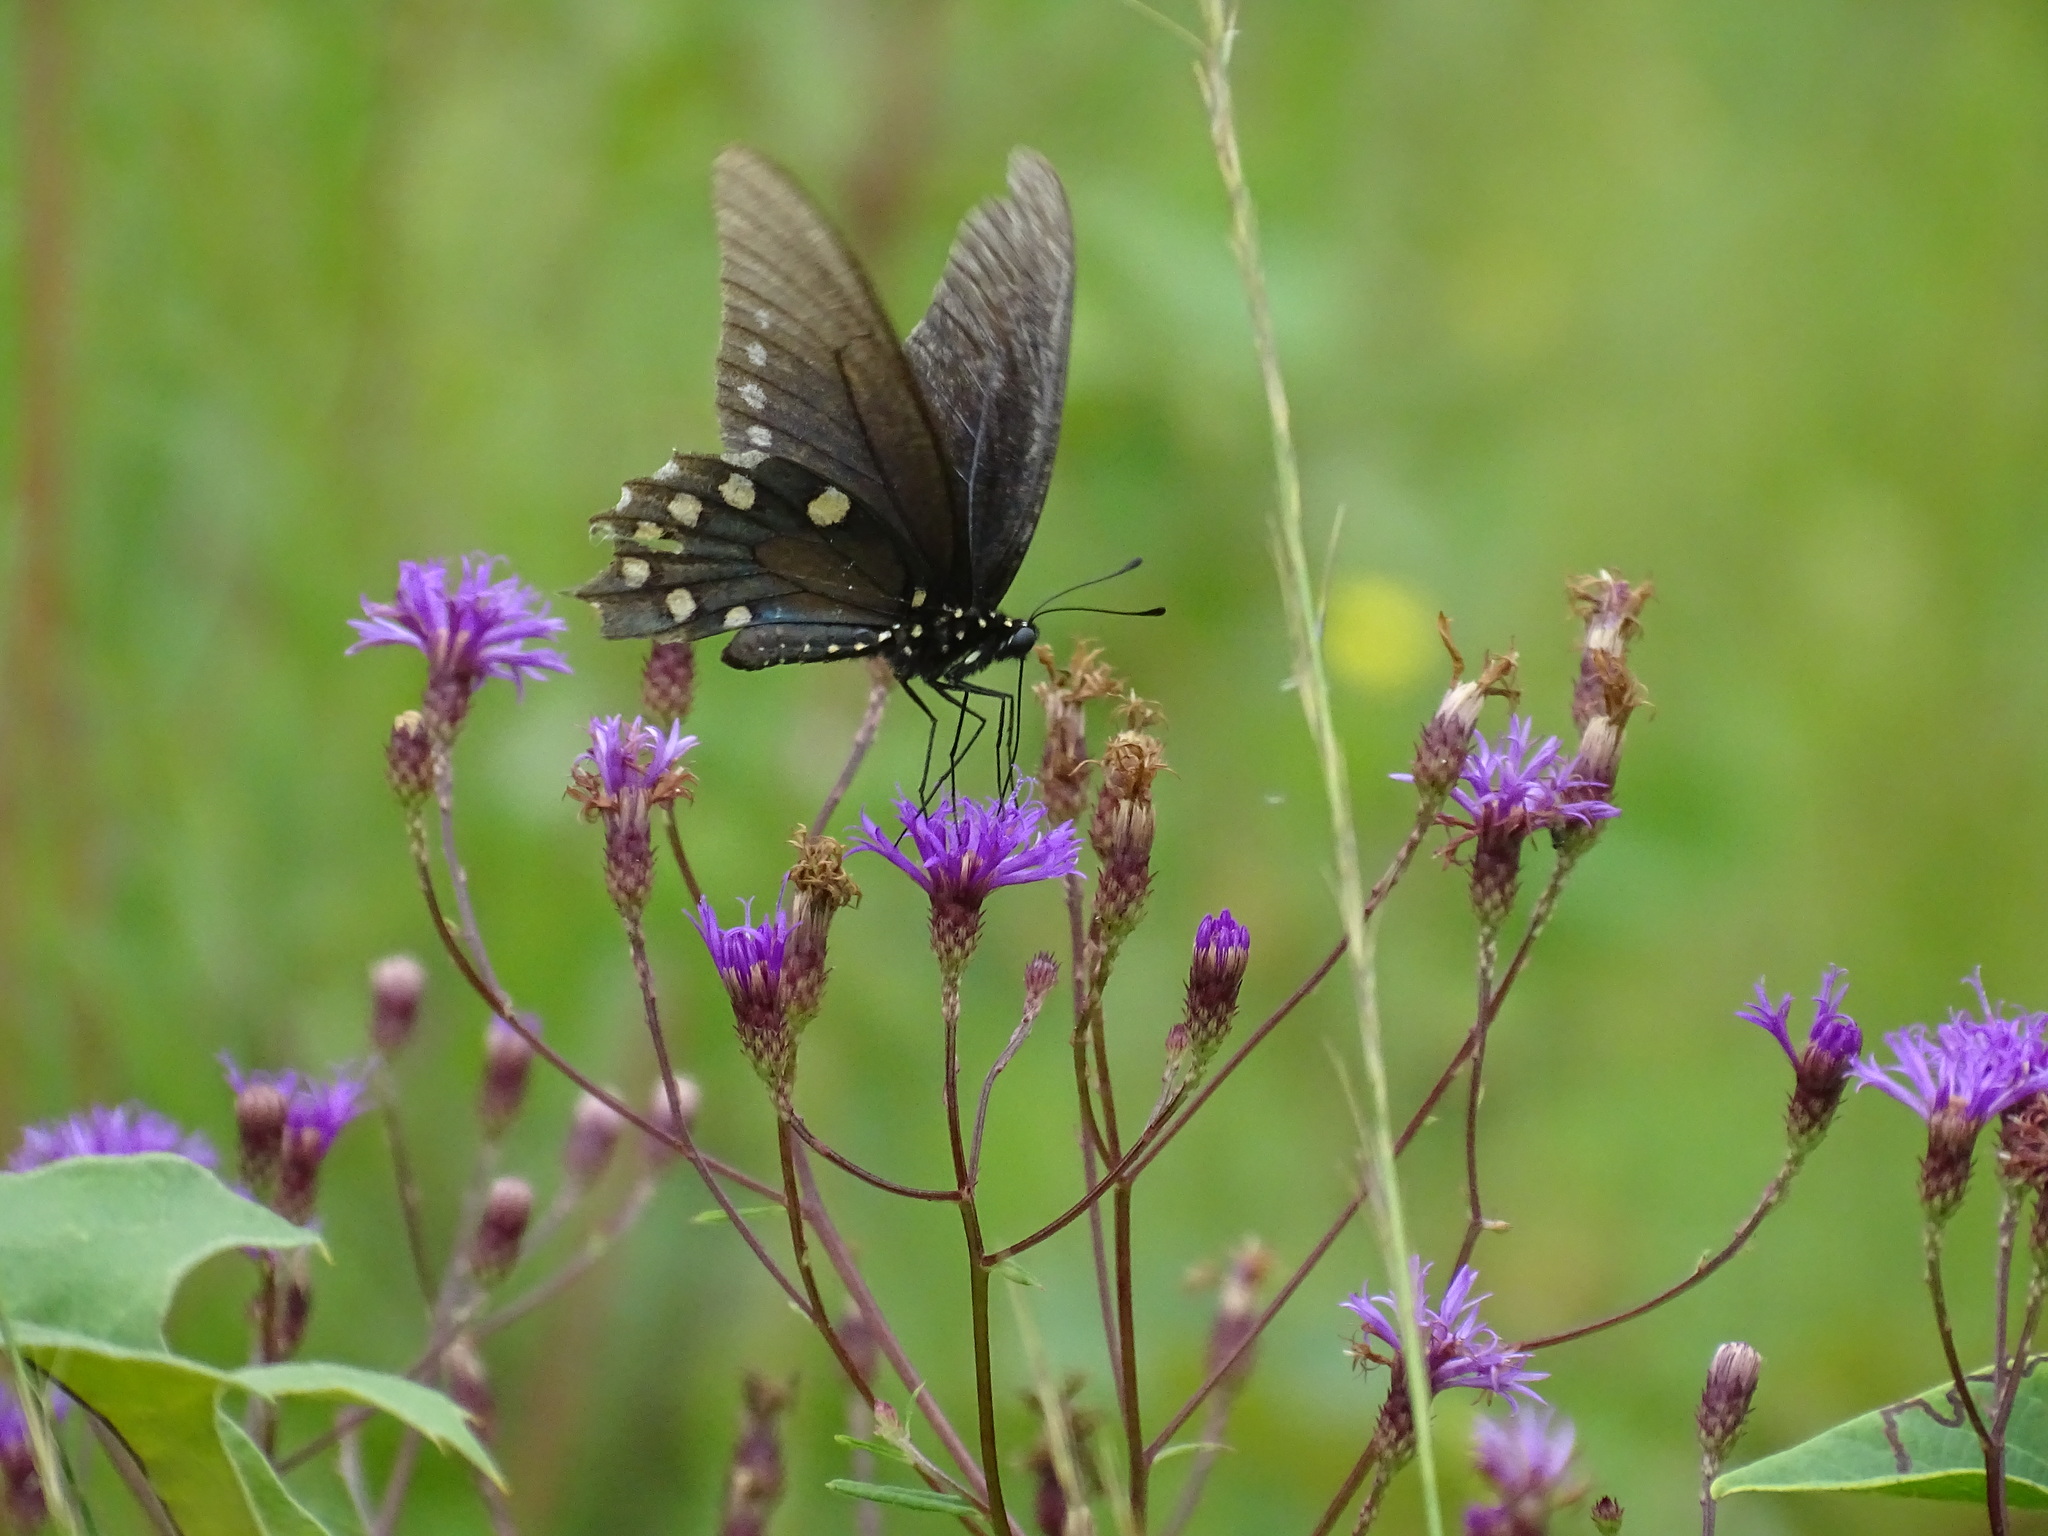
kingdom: Animalia
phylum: Arthropoda
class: Insecta
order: Lepidoptera
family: Papilionidae
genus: Battus
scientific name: Battus philenor
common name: Pipevine swallowtail
